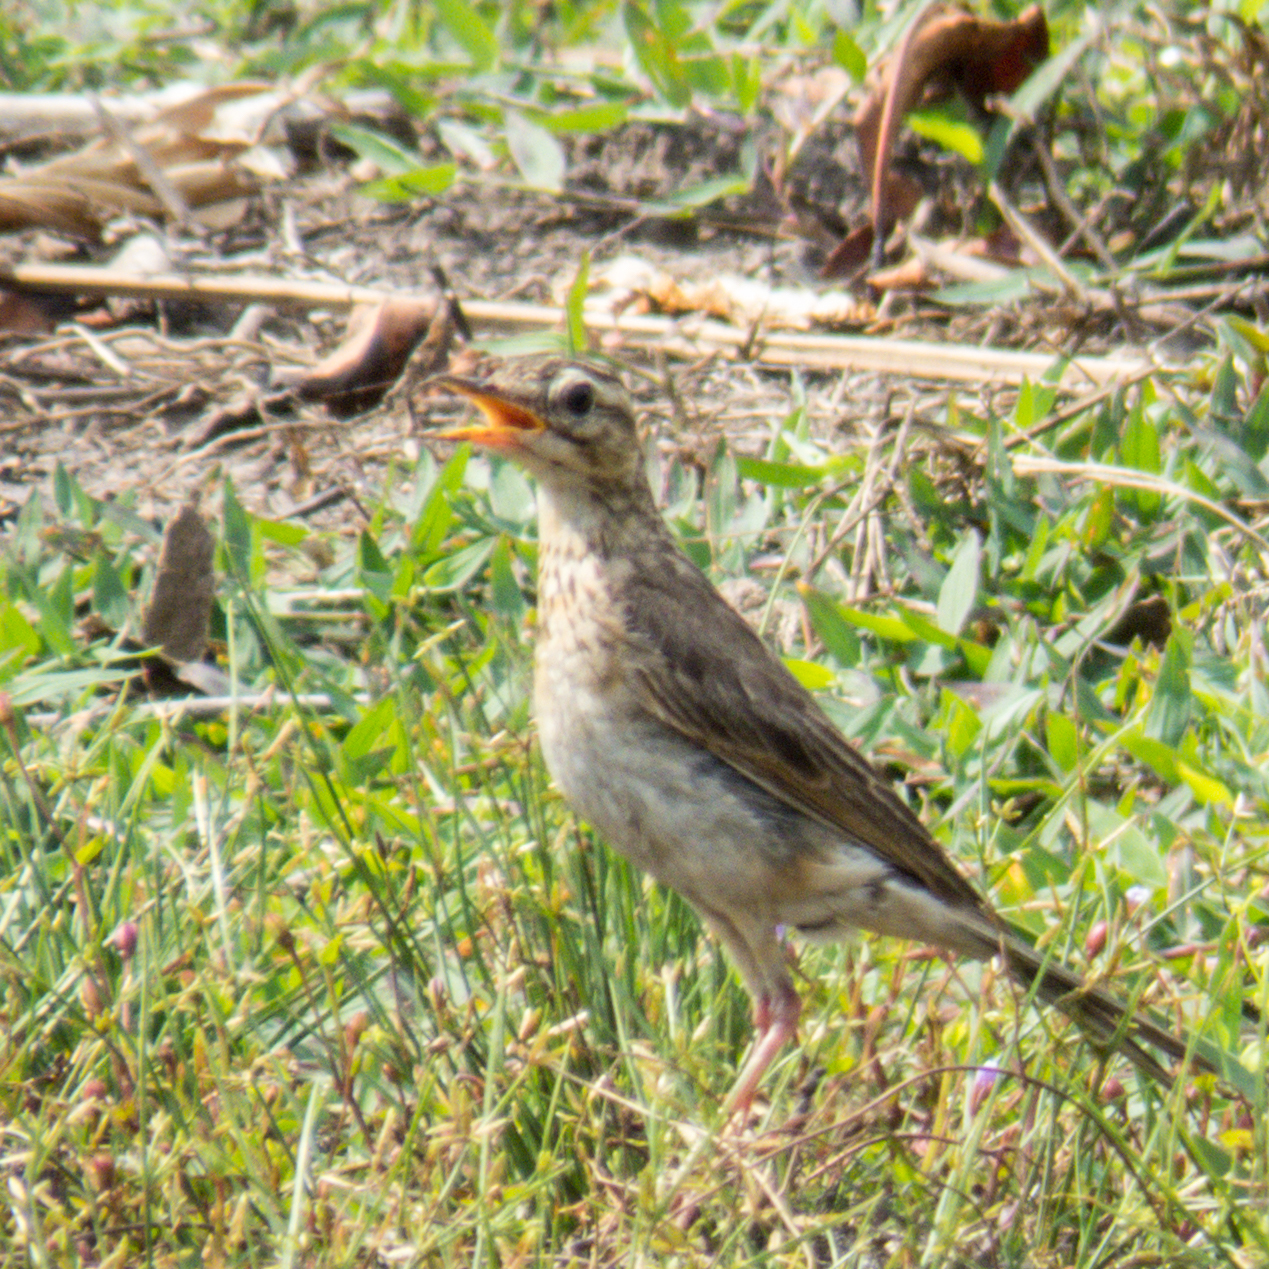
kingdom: Animalia
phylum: Chordata
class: Aves
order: Passeriformes
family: Motacillidae
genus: Anthus
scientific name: Anthus rufulus
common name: Paddyfield pipit
